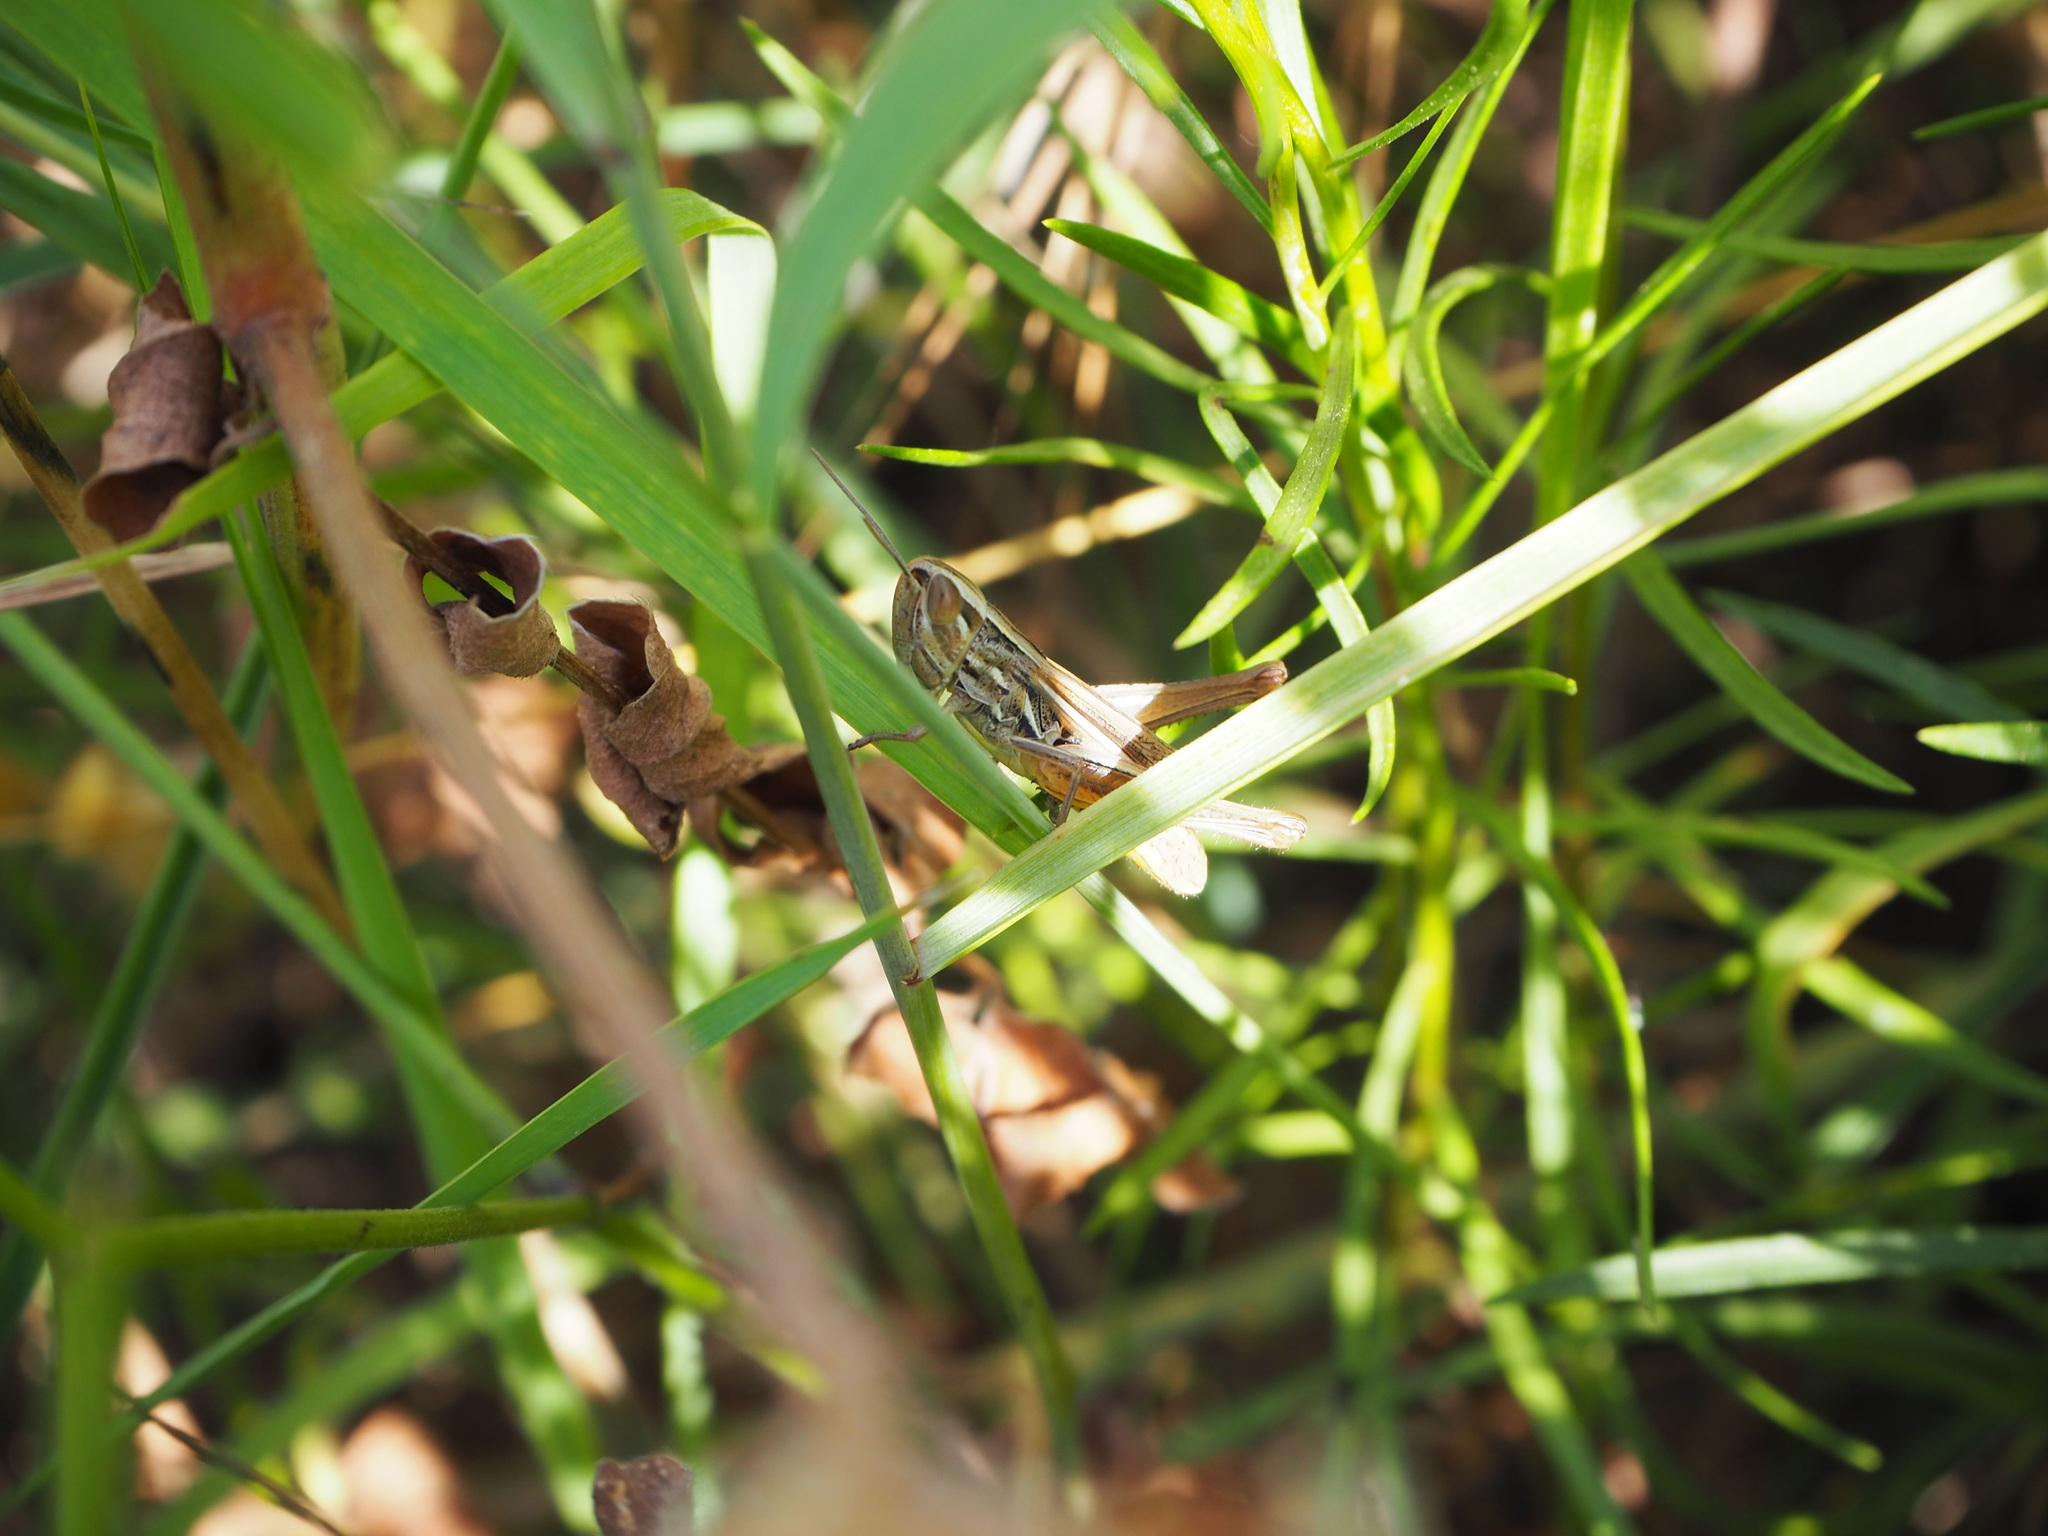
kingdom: Animalia
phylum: Arthropoda
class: Insecta
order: Orthoptera
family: Acrididae
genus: Euchorthippus
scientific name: Euchorthippus declivus
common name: Common straw grasshopper
